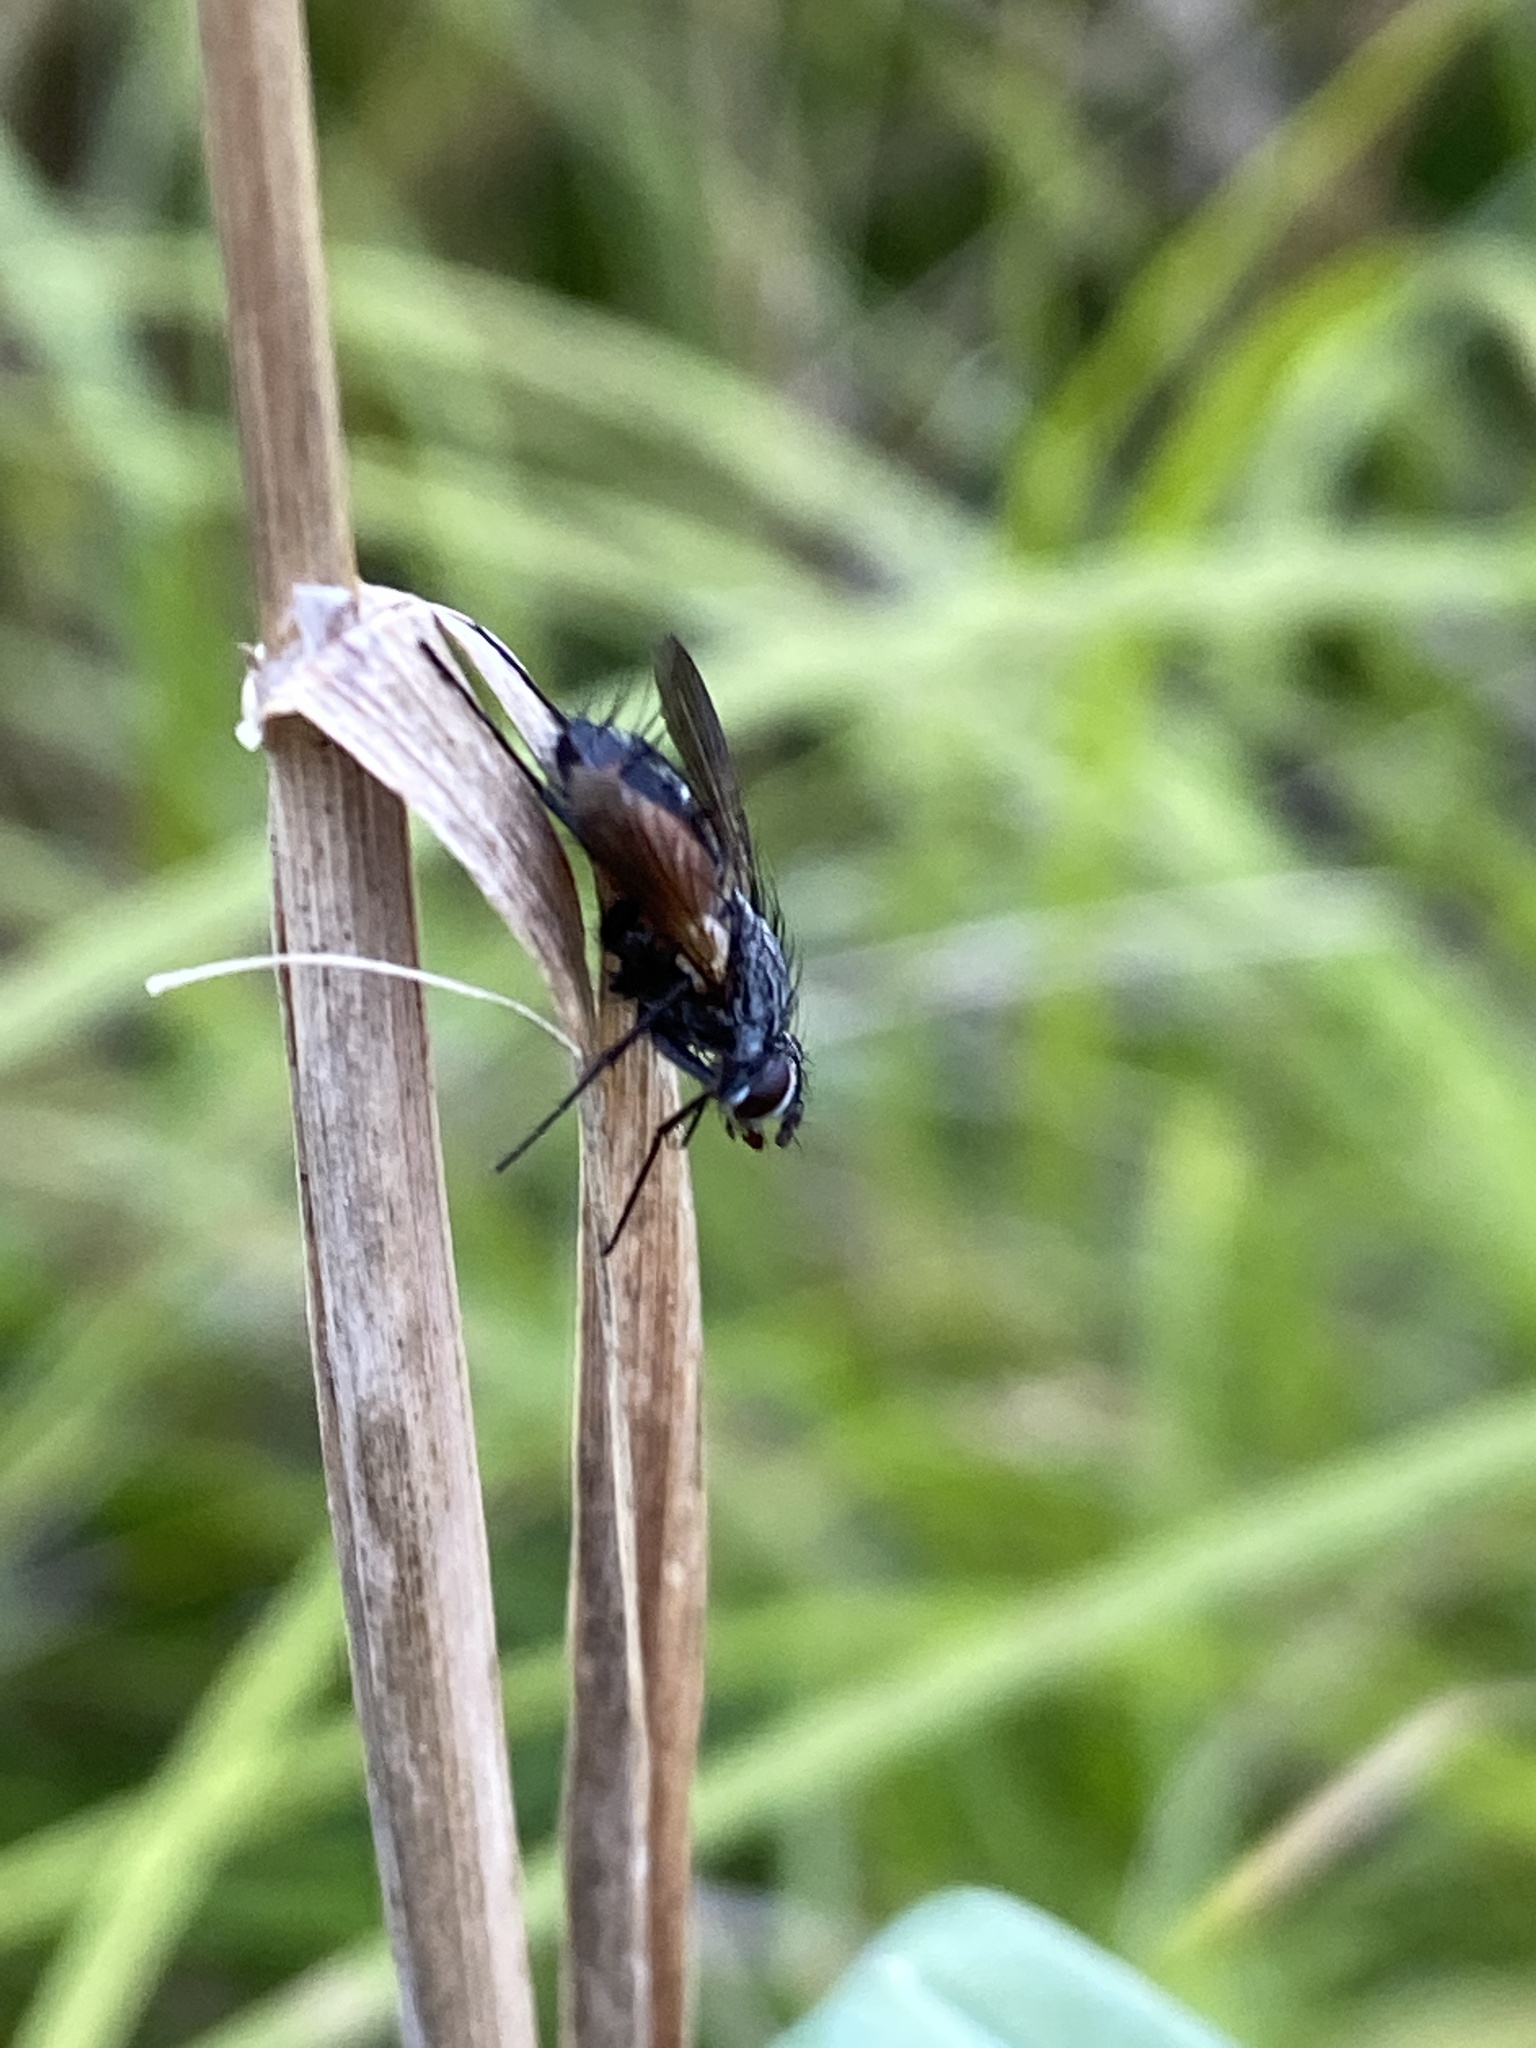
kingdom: Animalia
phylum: Arthropoda
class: Insecta
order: Diptera
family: Tachinidae
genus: Eriothrix
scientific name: Eriothrix rufomaculatus
